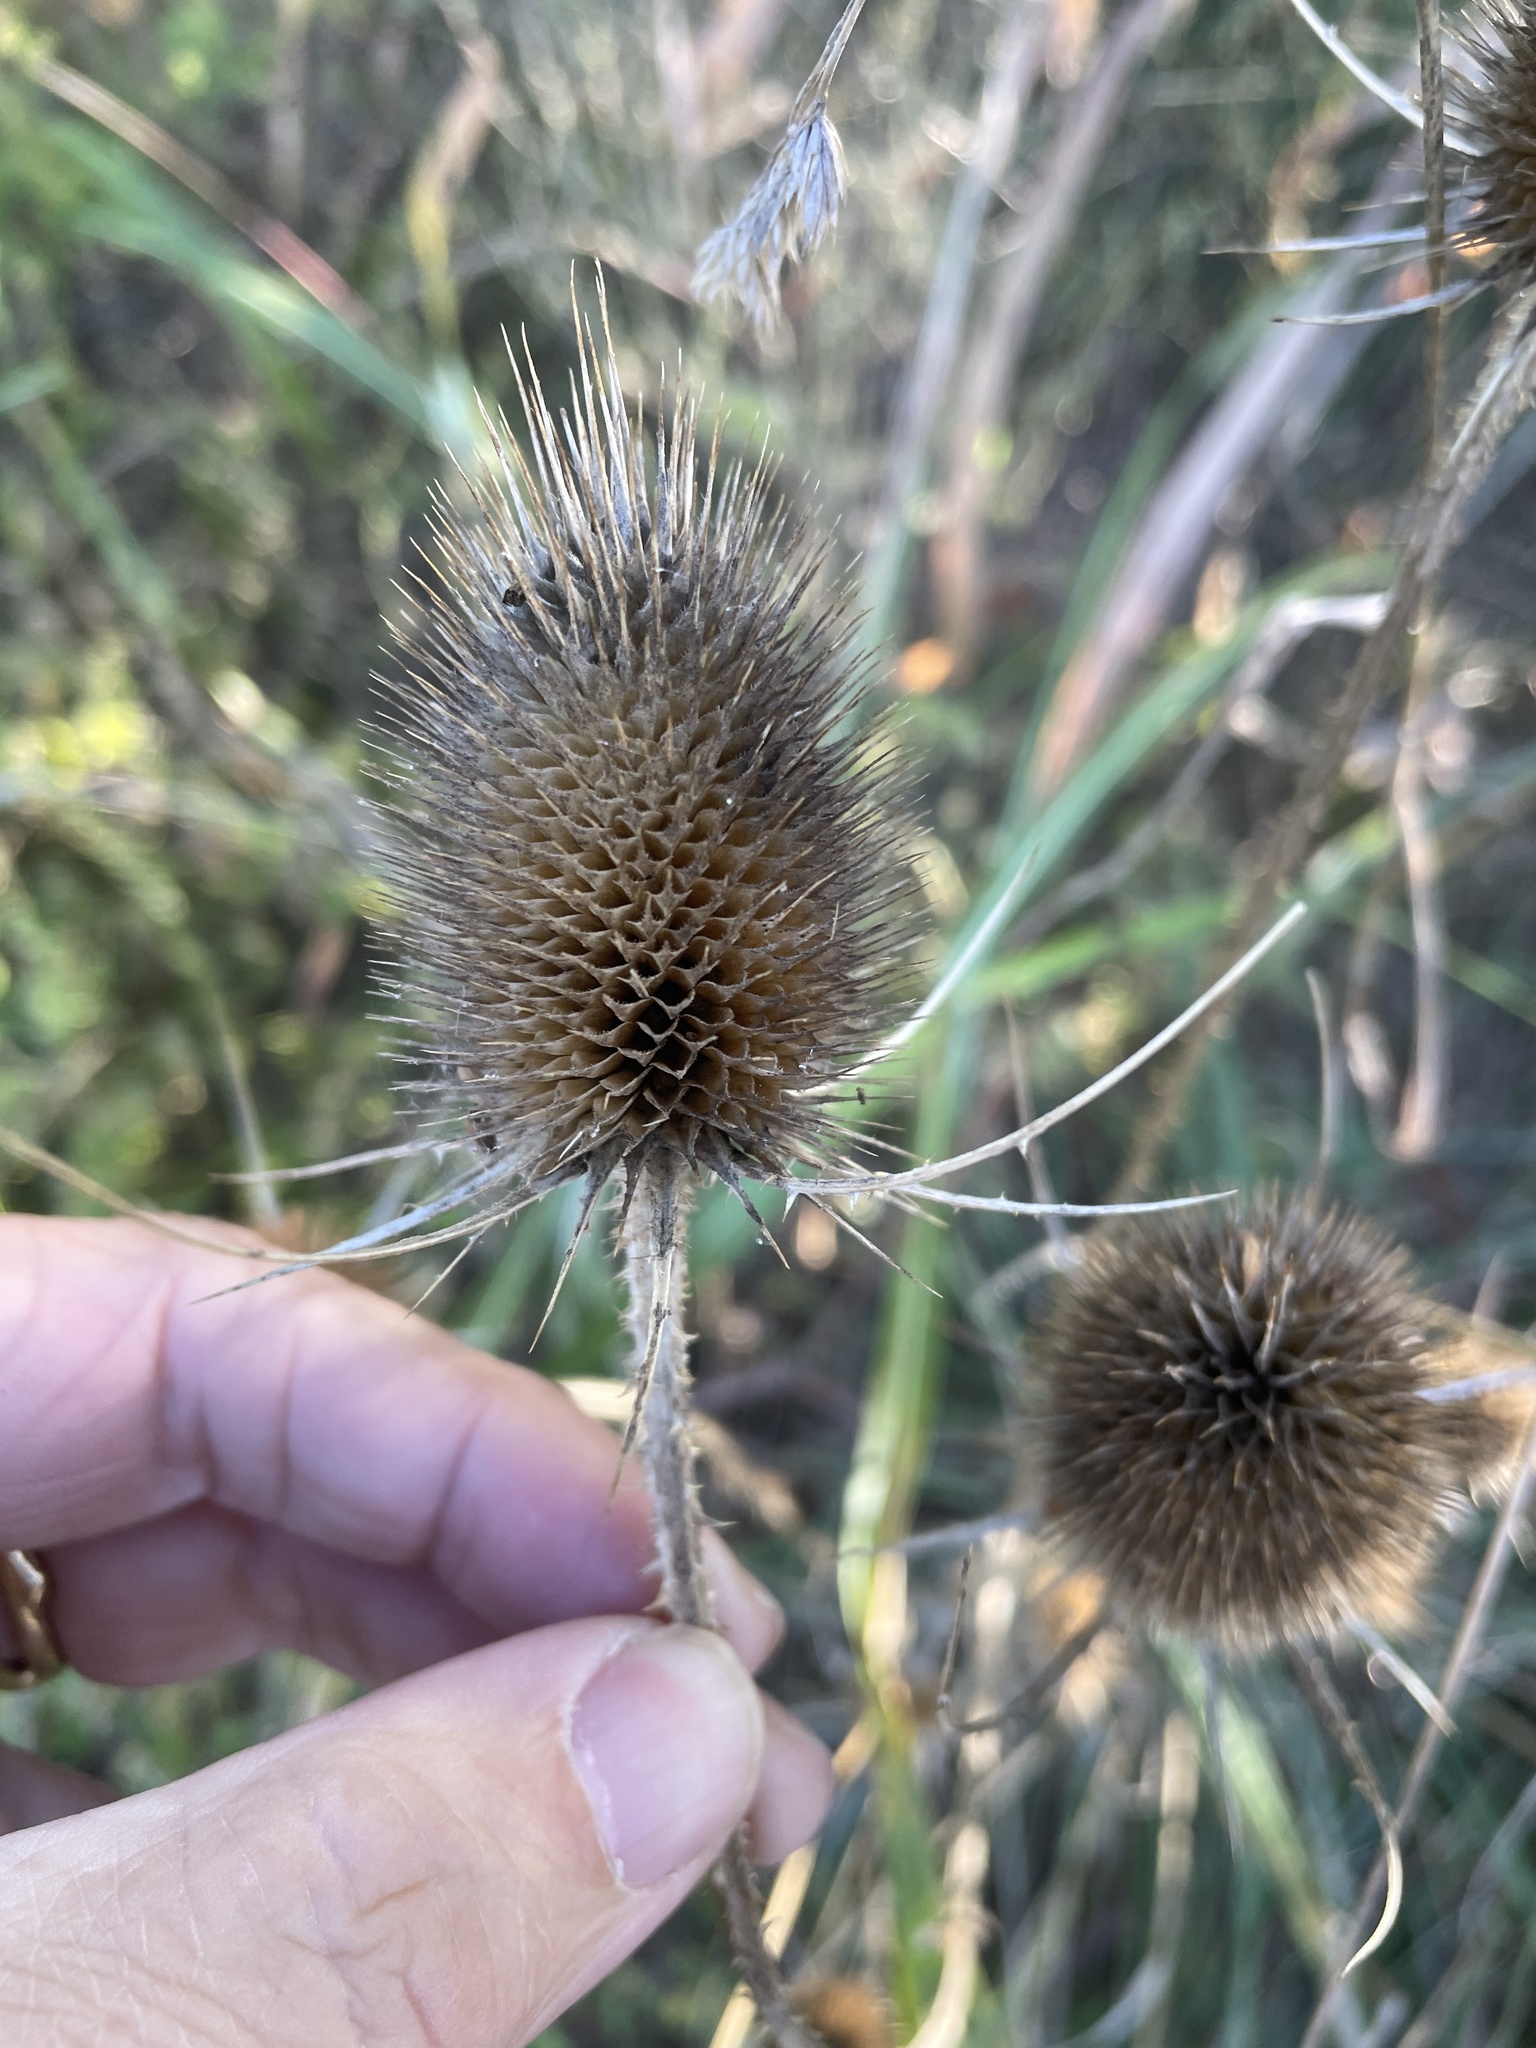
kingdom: Plantae
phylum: Tracheophyta
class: Magnoliopsida
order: Dipsacales
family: Caprifoliaceae
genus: Dipsacus
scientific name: Dipsacus fullonum
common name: Teasel
